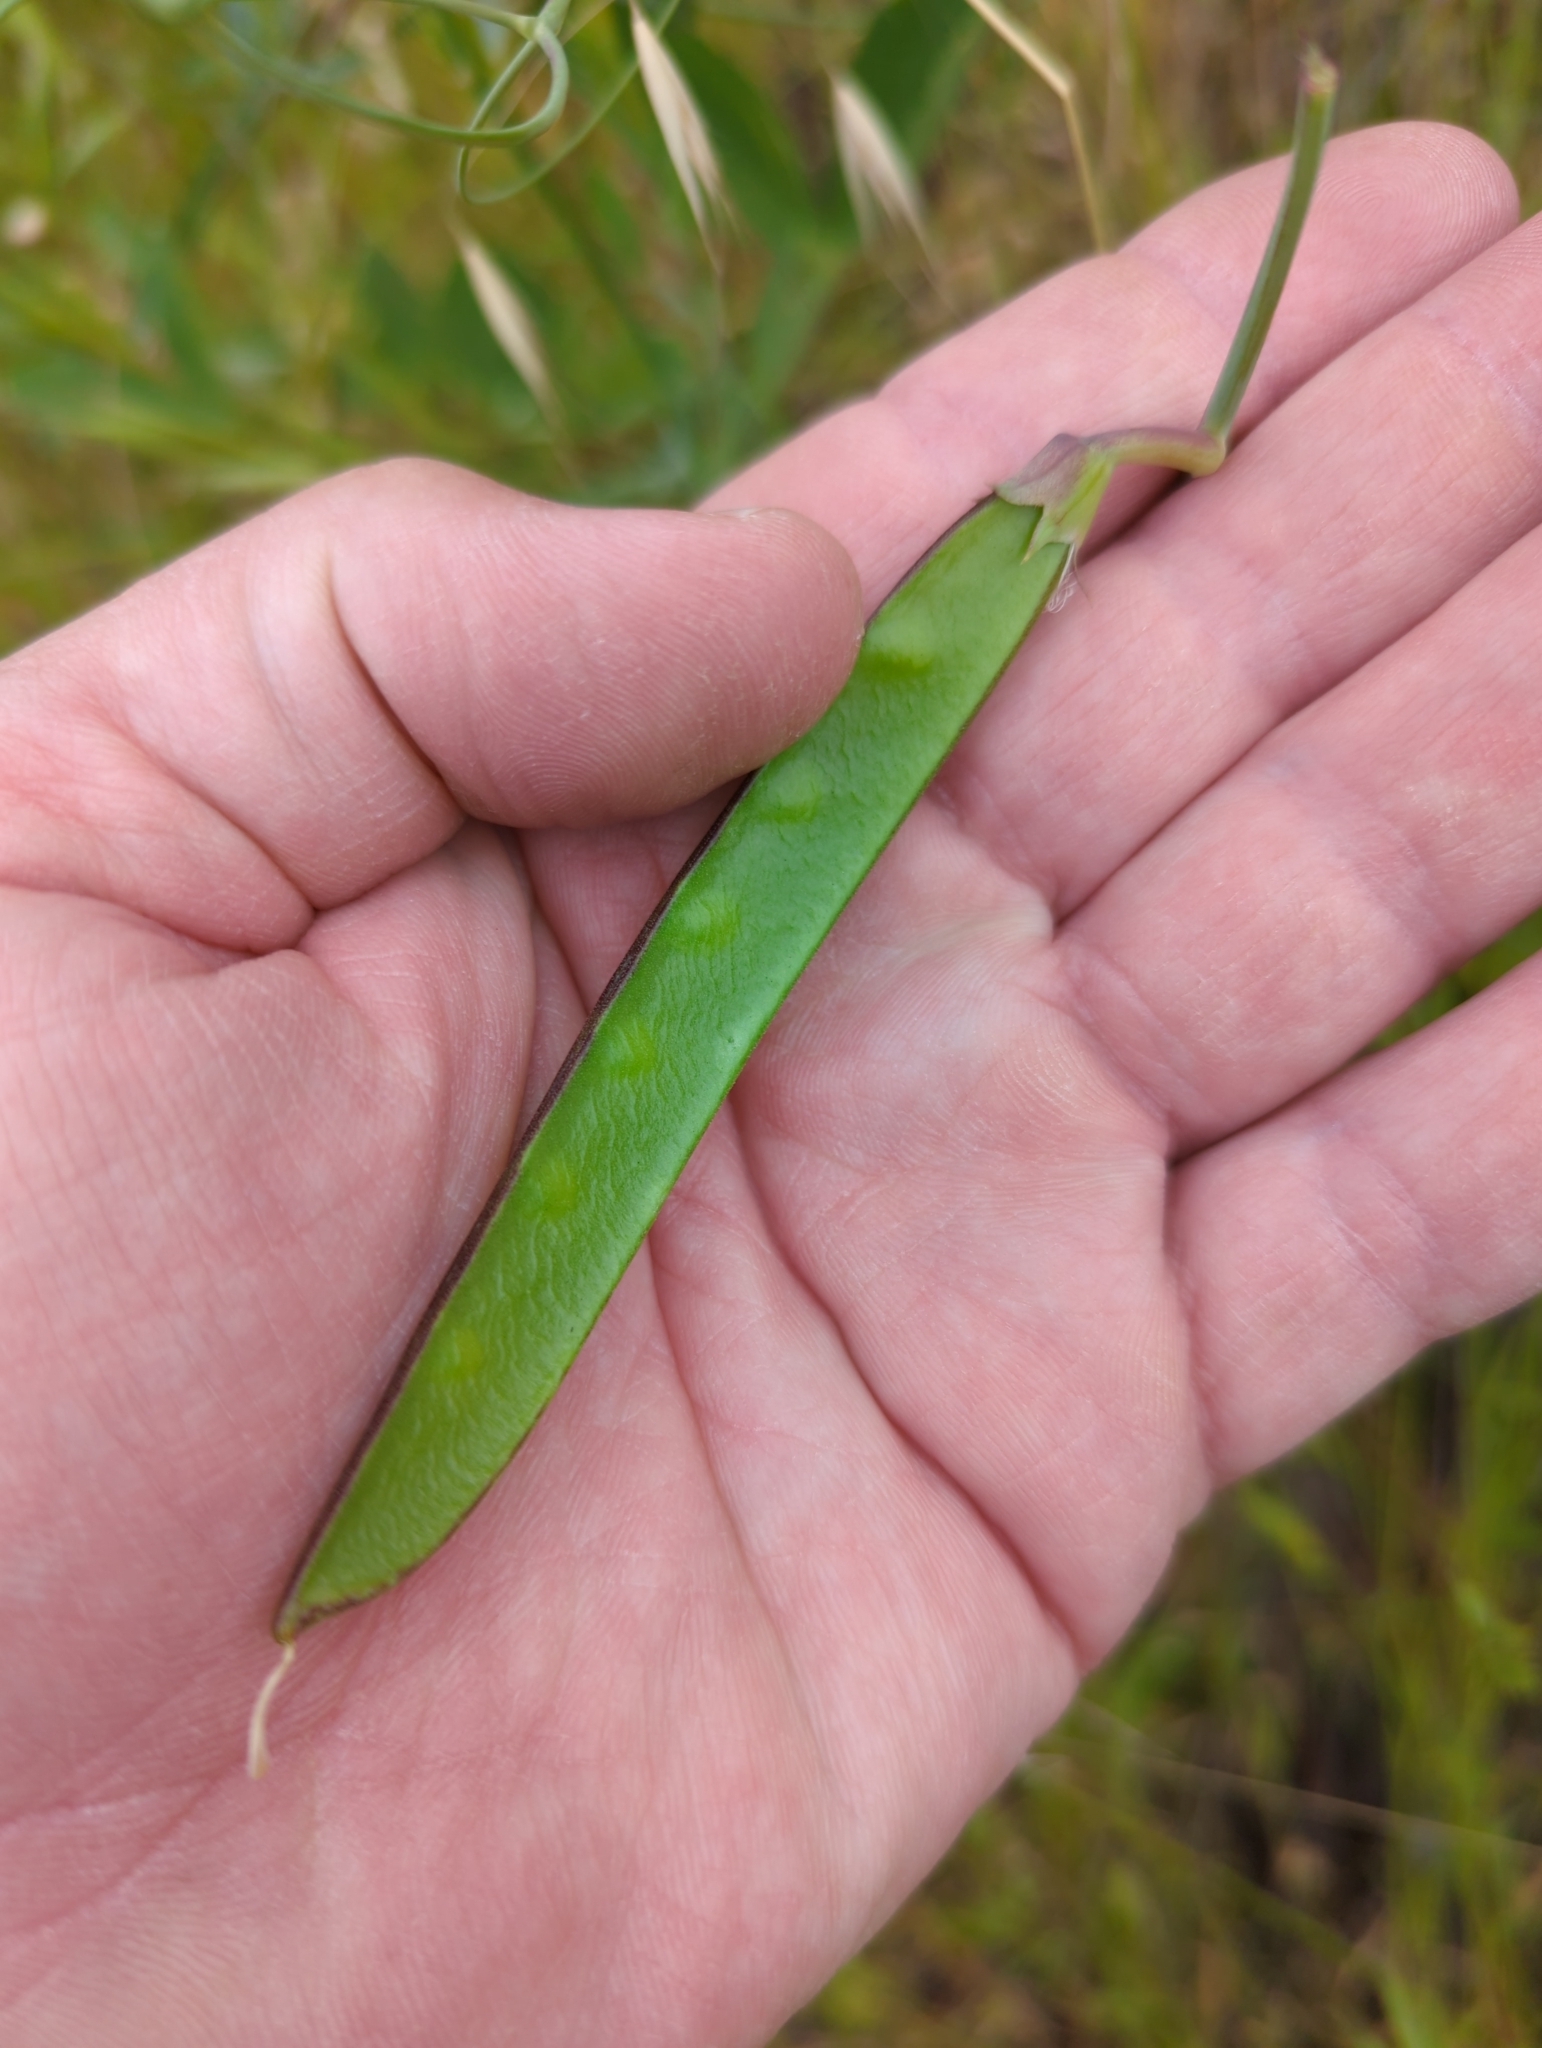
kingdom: Plantae
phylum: Tracheophyta
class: Magnoliopsida
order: Fabales
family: Fabaceae
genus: Lathyrus
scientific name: Lathyrus tingitanus
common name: Tangier pea
